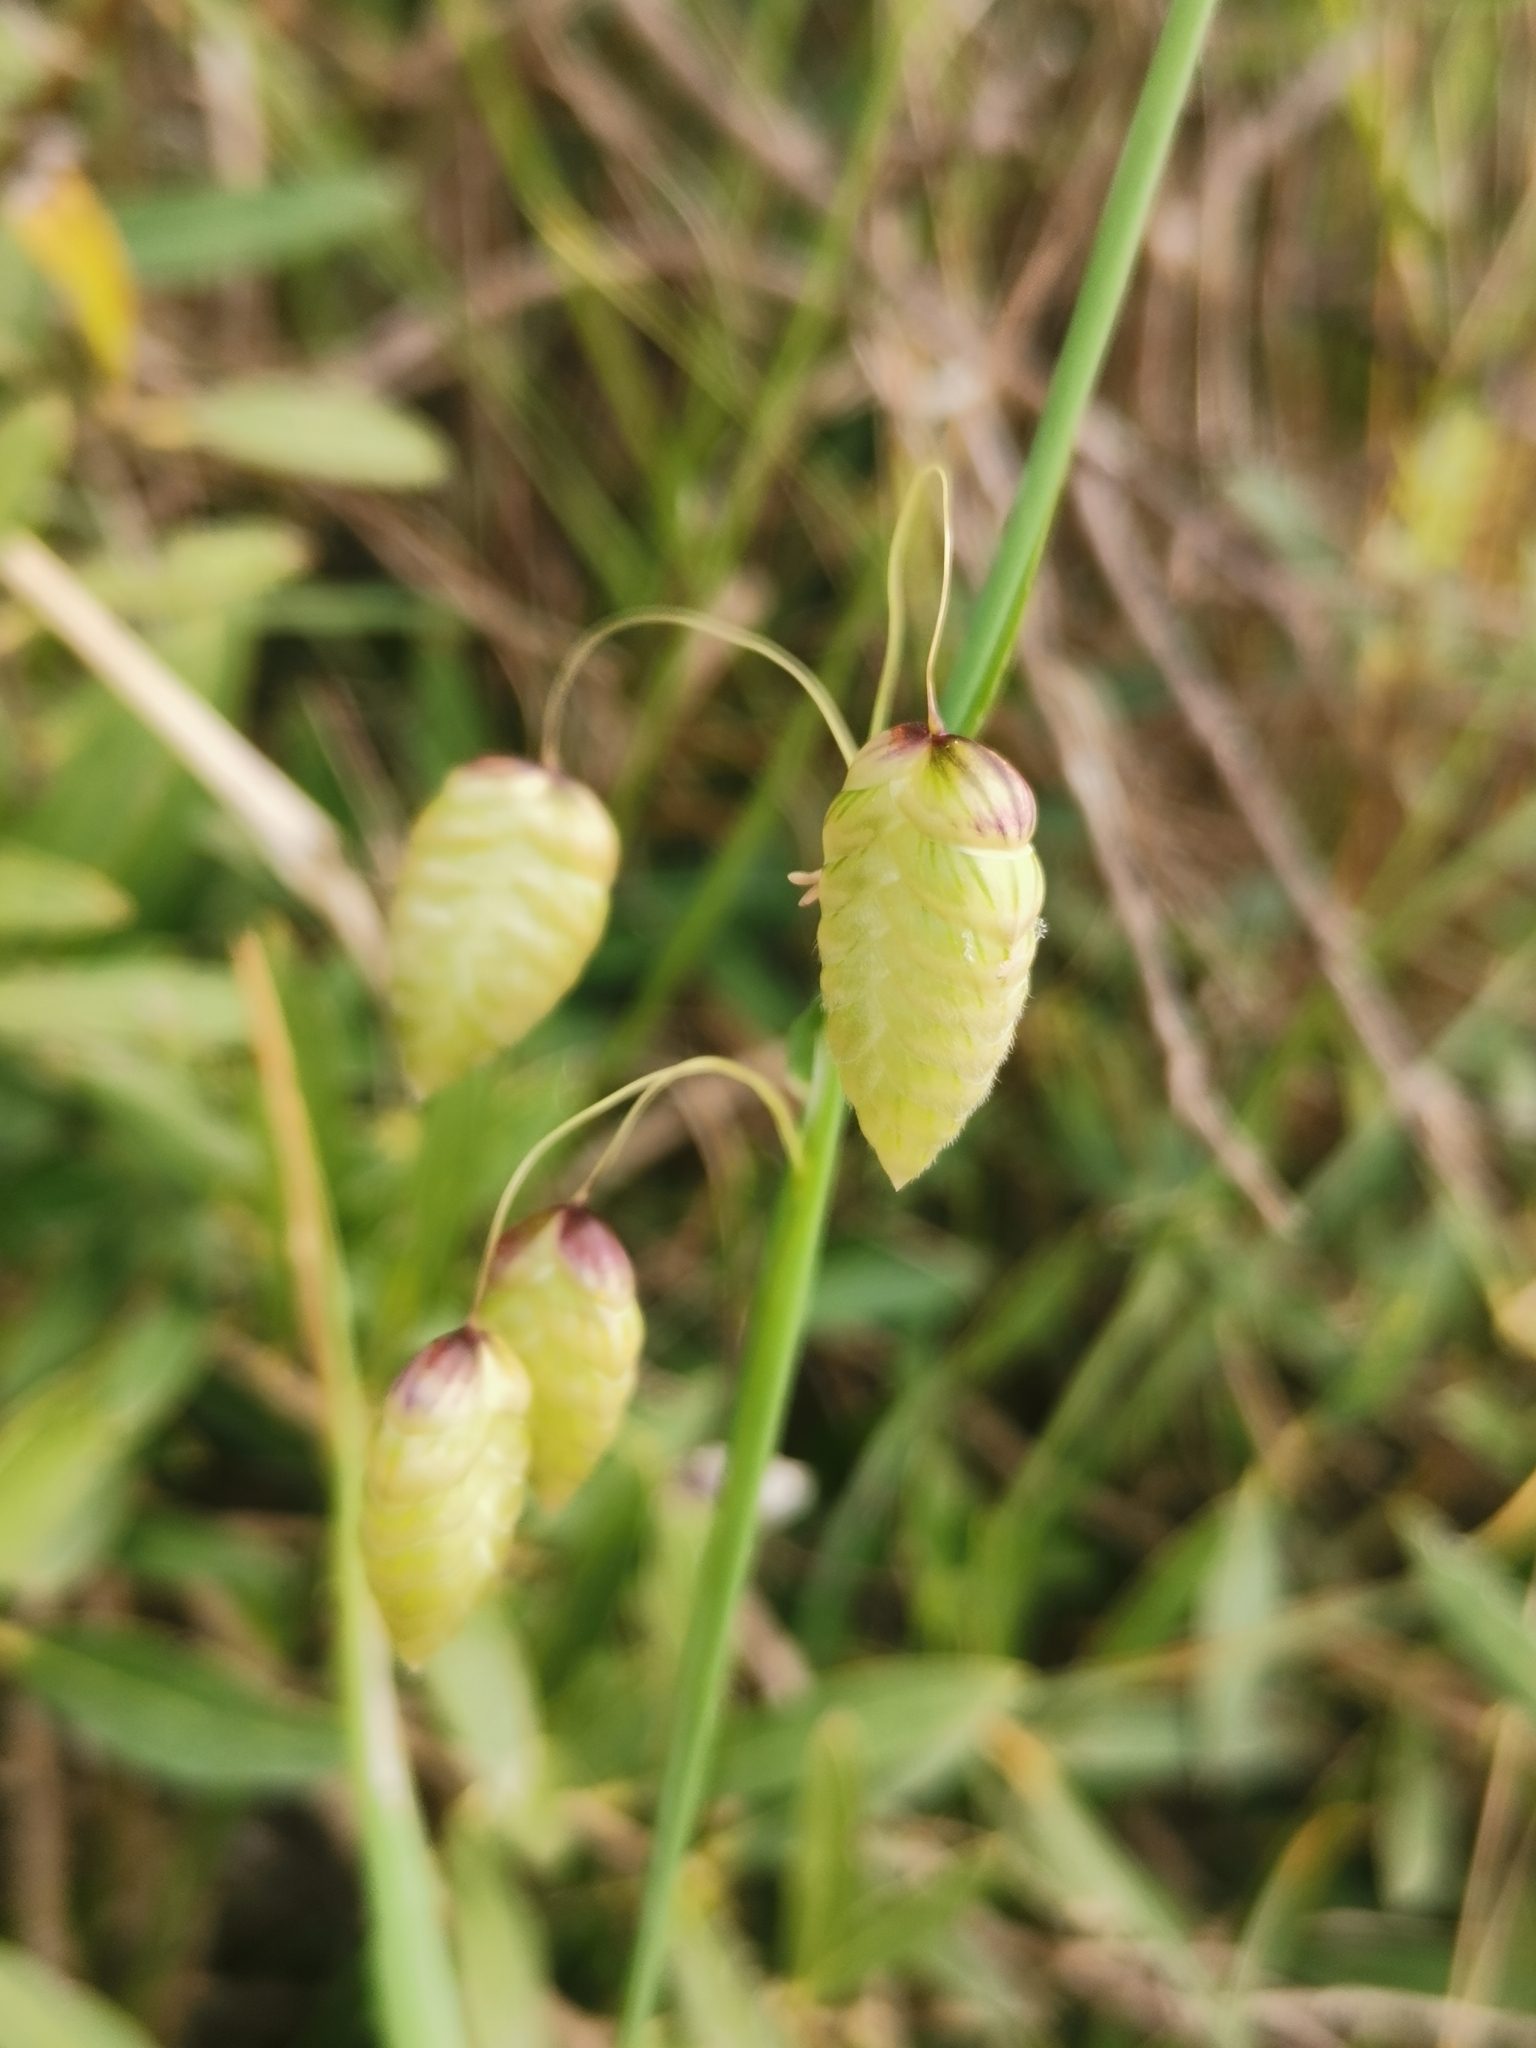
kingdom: Plantae
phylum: Tracheophyta
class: Liliopsida
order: Poales
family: Poaceae
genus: Briza
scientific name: Briza maxima
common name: Big quakinggrass
